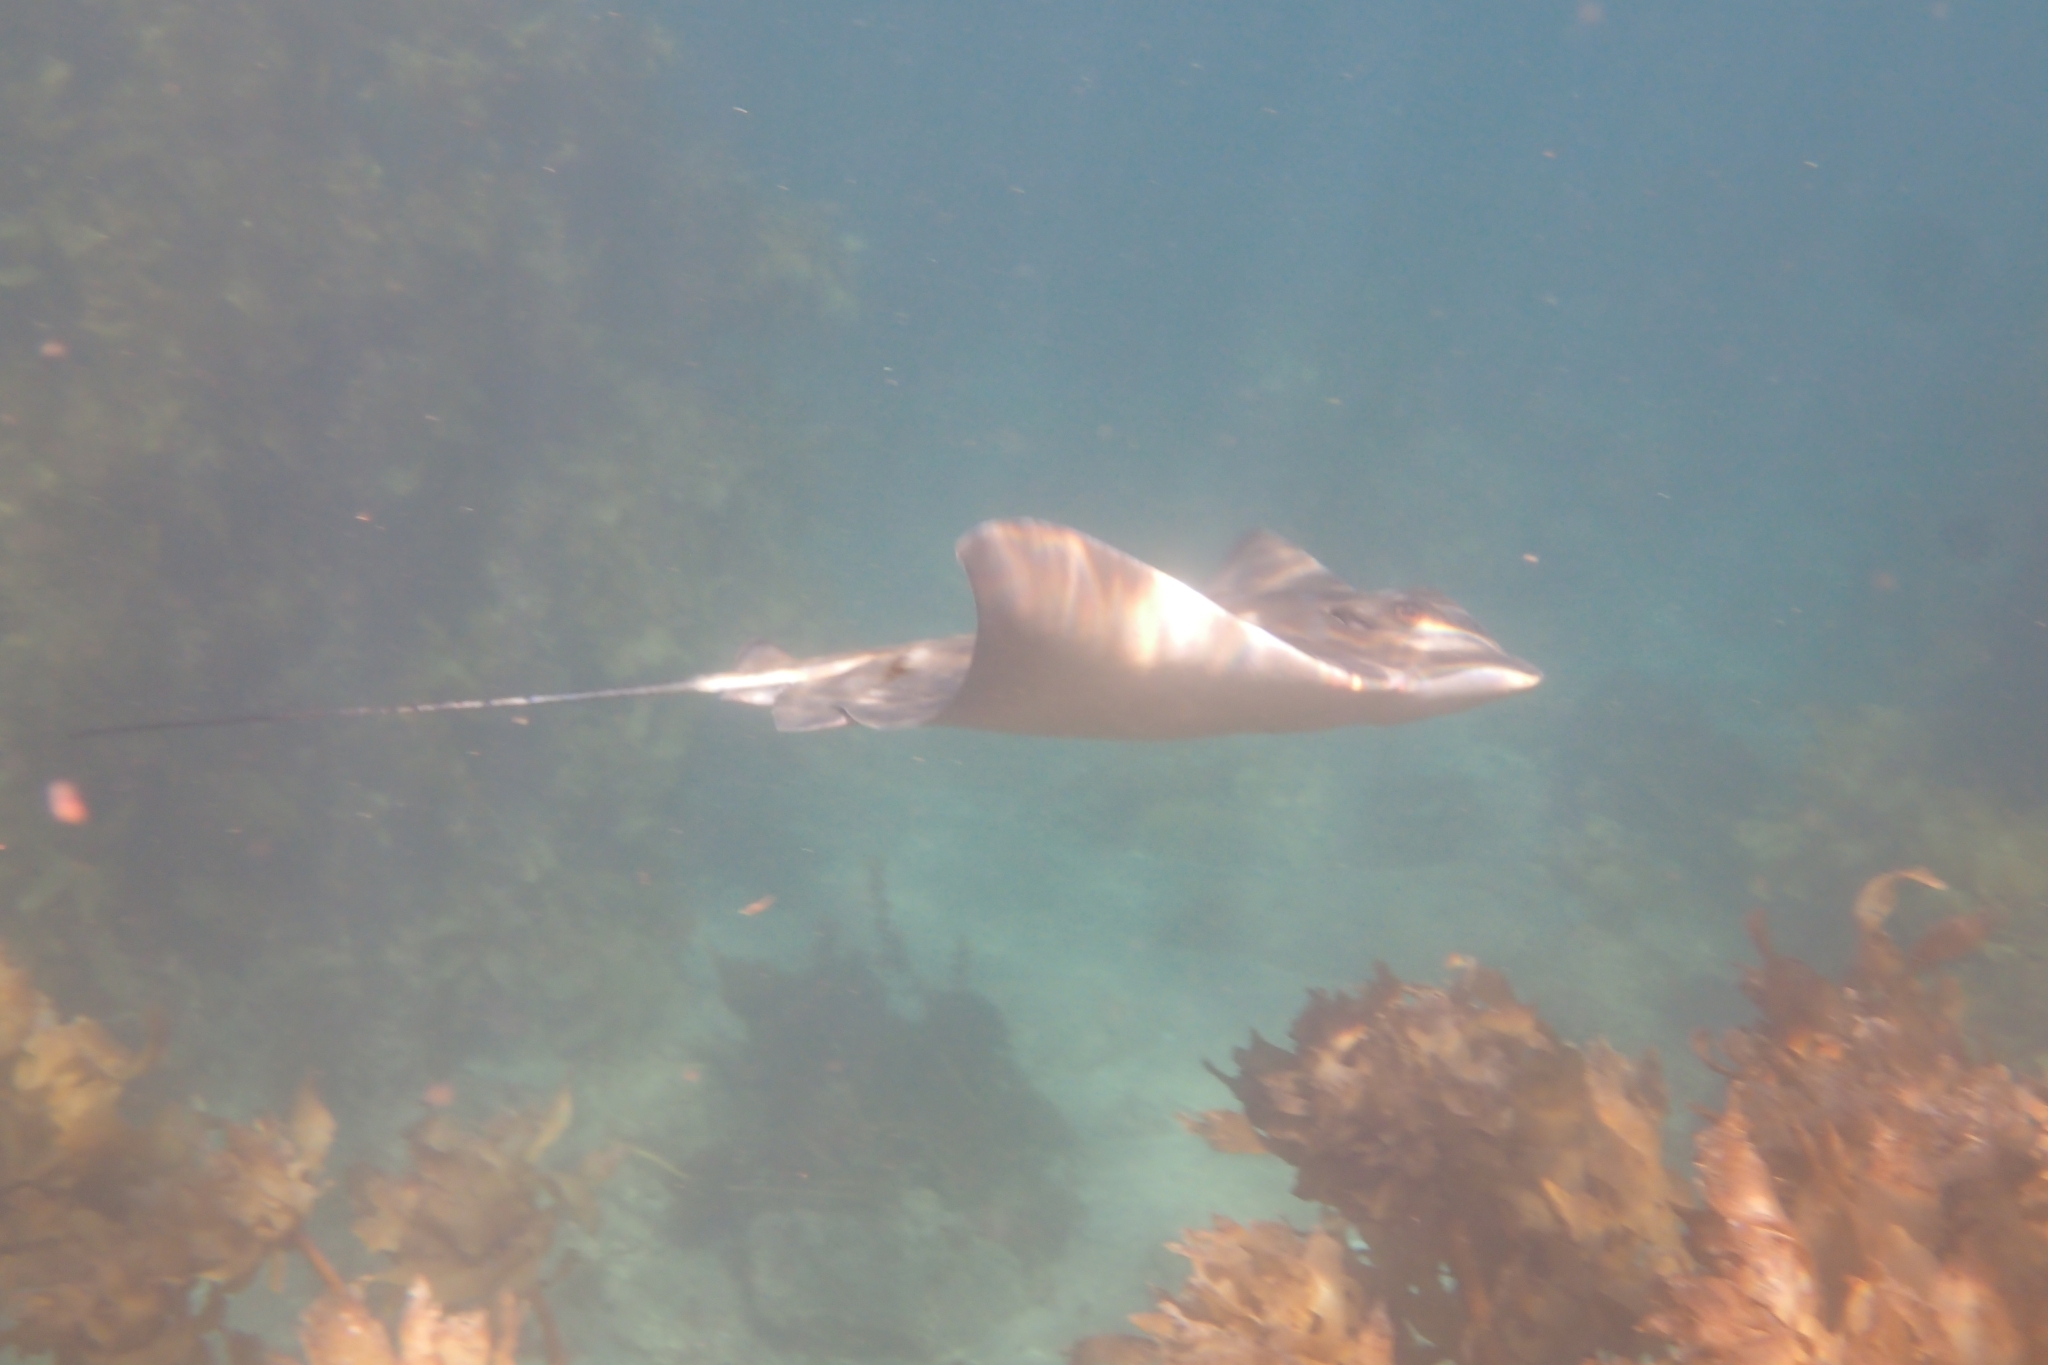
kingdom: Animalia
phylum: Chordata
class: Elasmobranchii
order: Myliobatiformes
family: Myliobatidae
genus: Myliobatis
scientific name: Myliobatis tenuicaudatus
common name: Eagle ray
